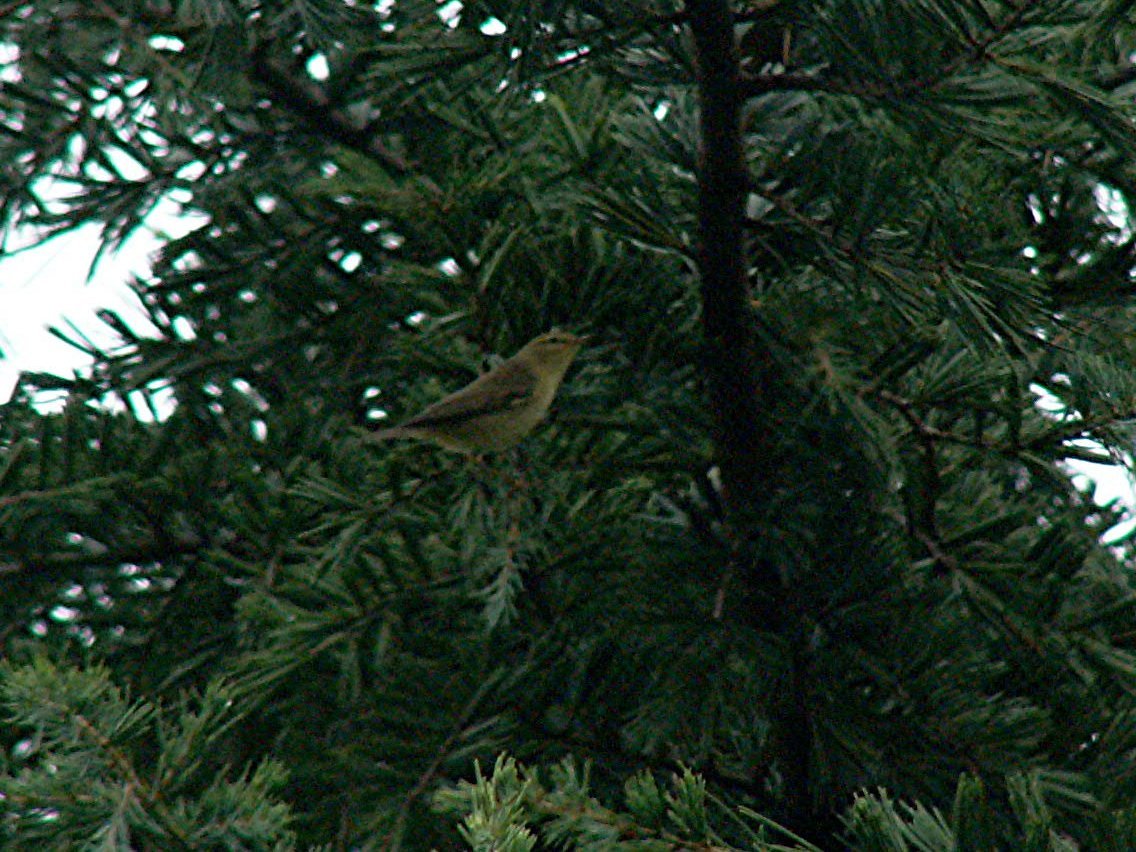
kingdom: Animalia
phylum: Chordata
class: Aves
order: Passeriformes
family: Phylloscopidae
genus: Phylloscopus
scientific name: Phylloscopus trochilus
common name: Willow warbler
